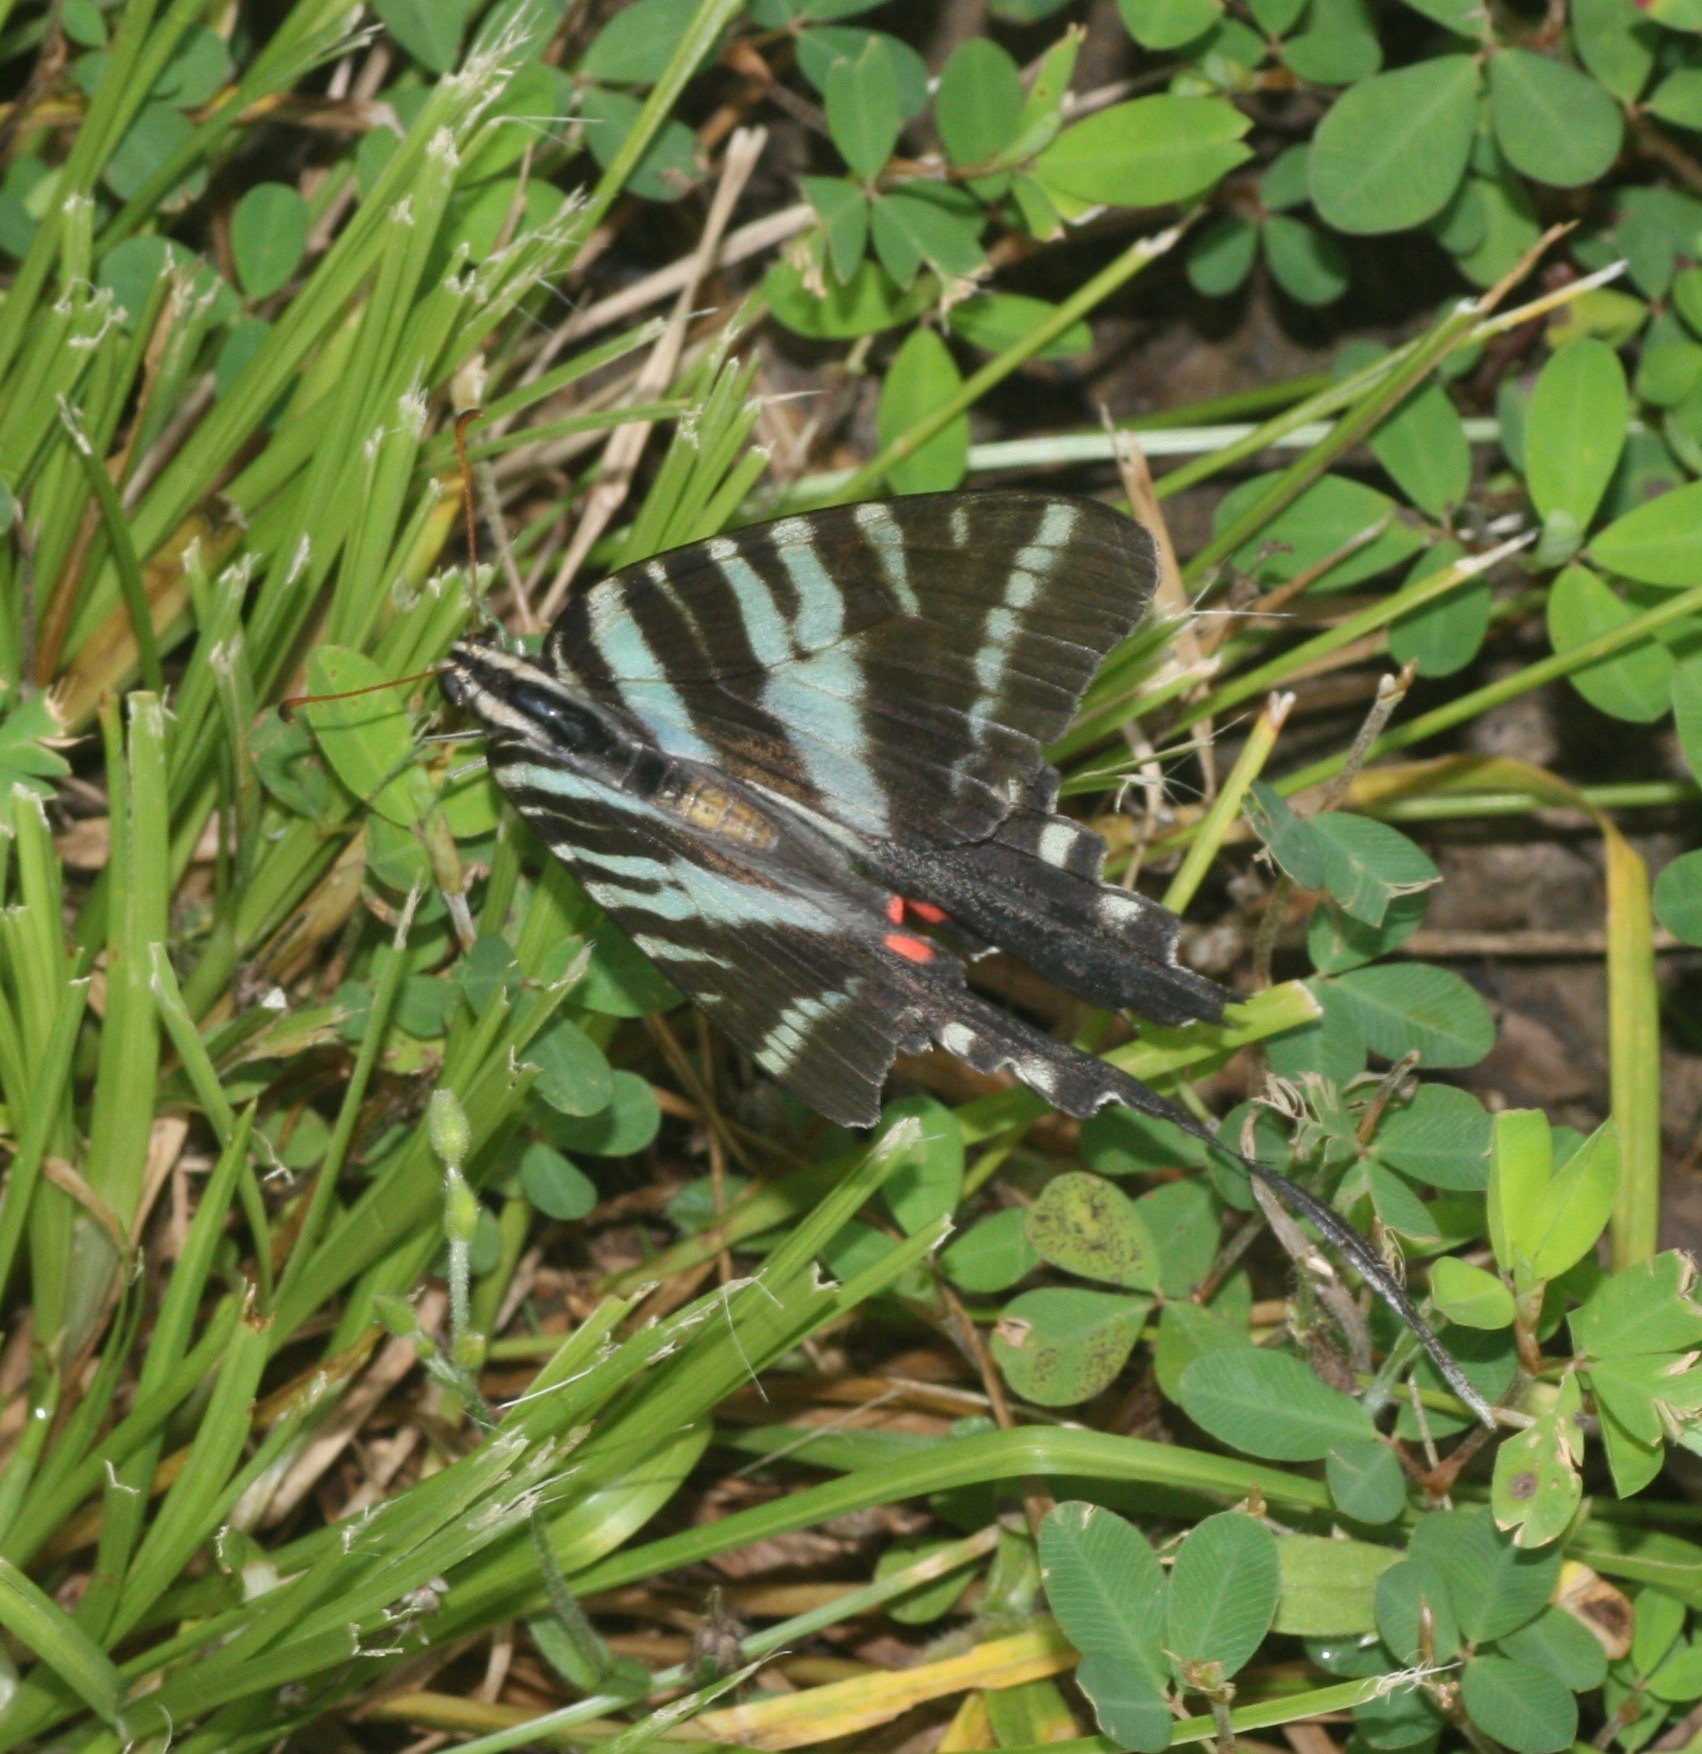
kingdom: Animalia
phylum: Arthropoda
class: Insecta
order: Lepidoptera
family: Papilionidae
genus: Protographium
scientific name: Protographium marcellus
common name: Zebra swallowtail
